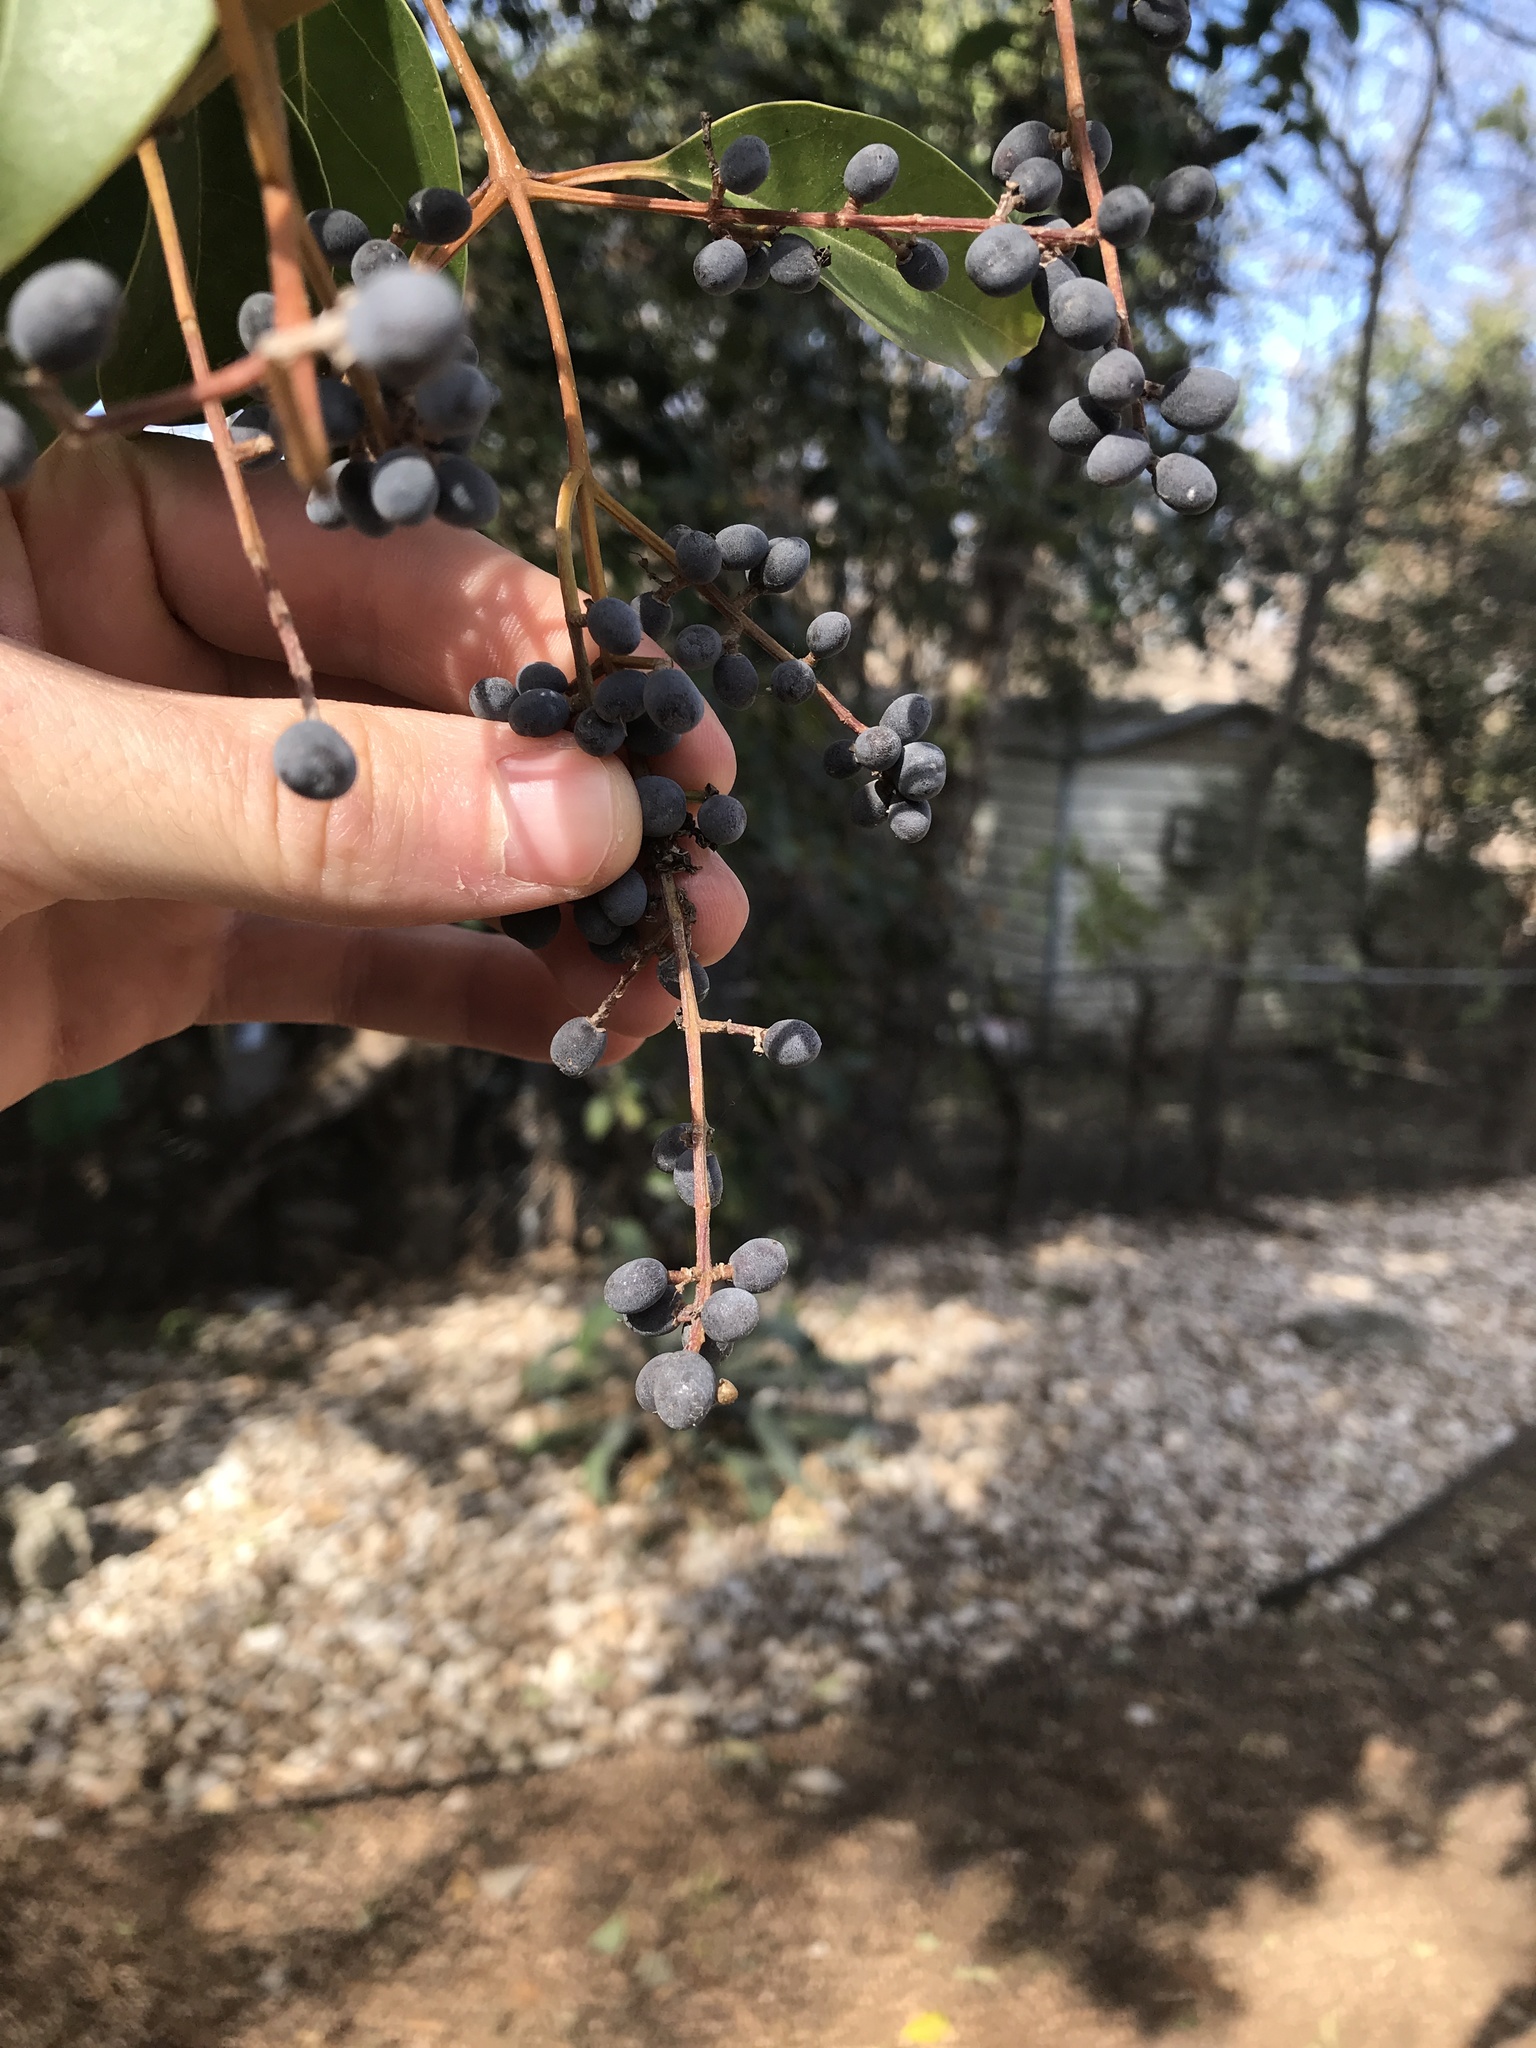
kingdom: Plantae
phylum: Tracheophyta
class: Magnoliopsida
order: Lamiales
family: Oleaceae
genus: Ligustrum
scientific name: Ligustrum lucidum
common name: Glossy privet
